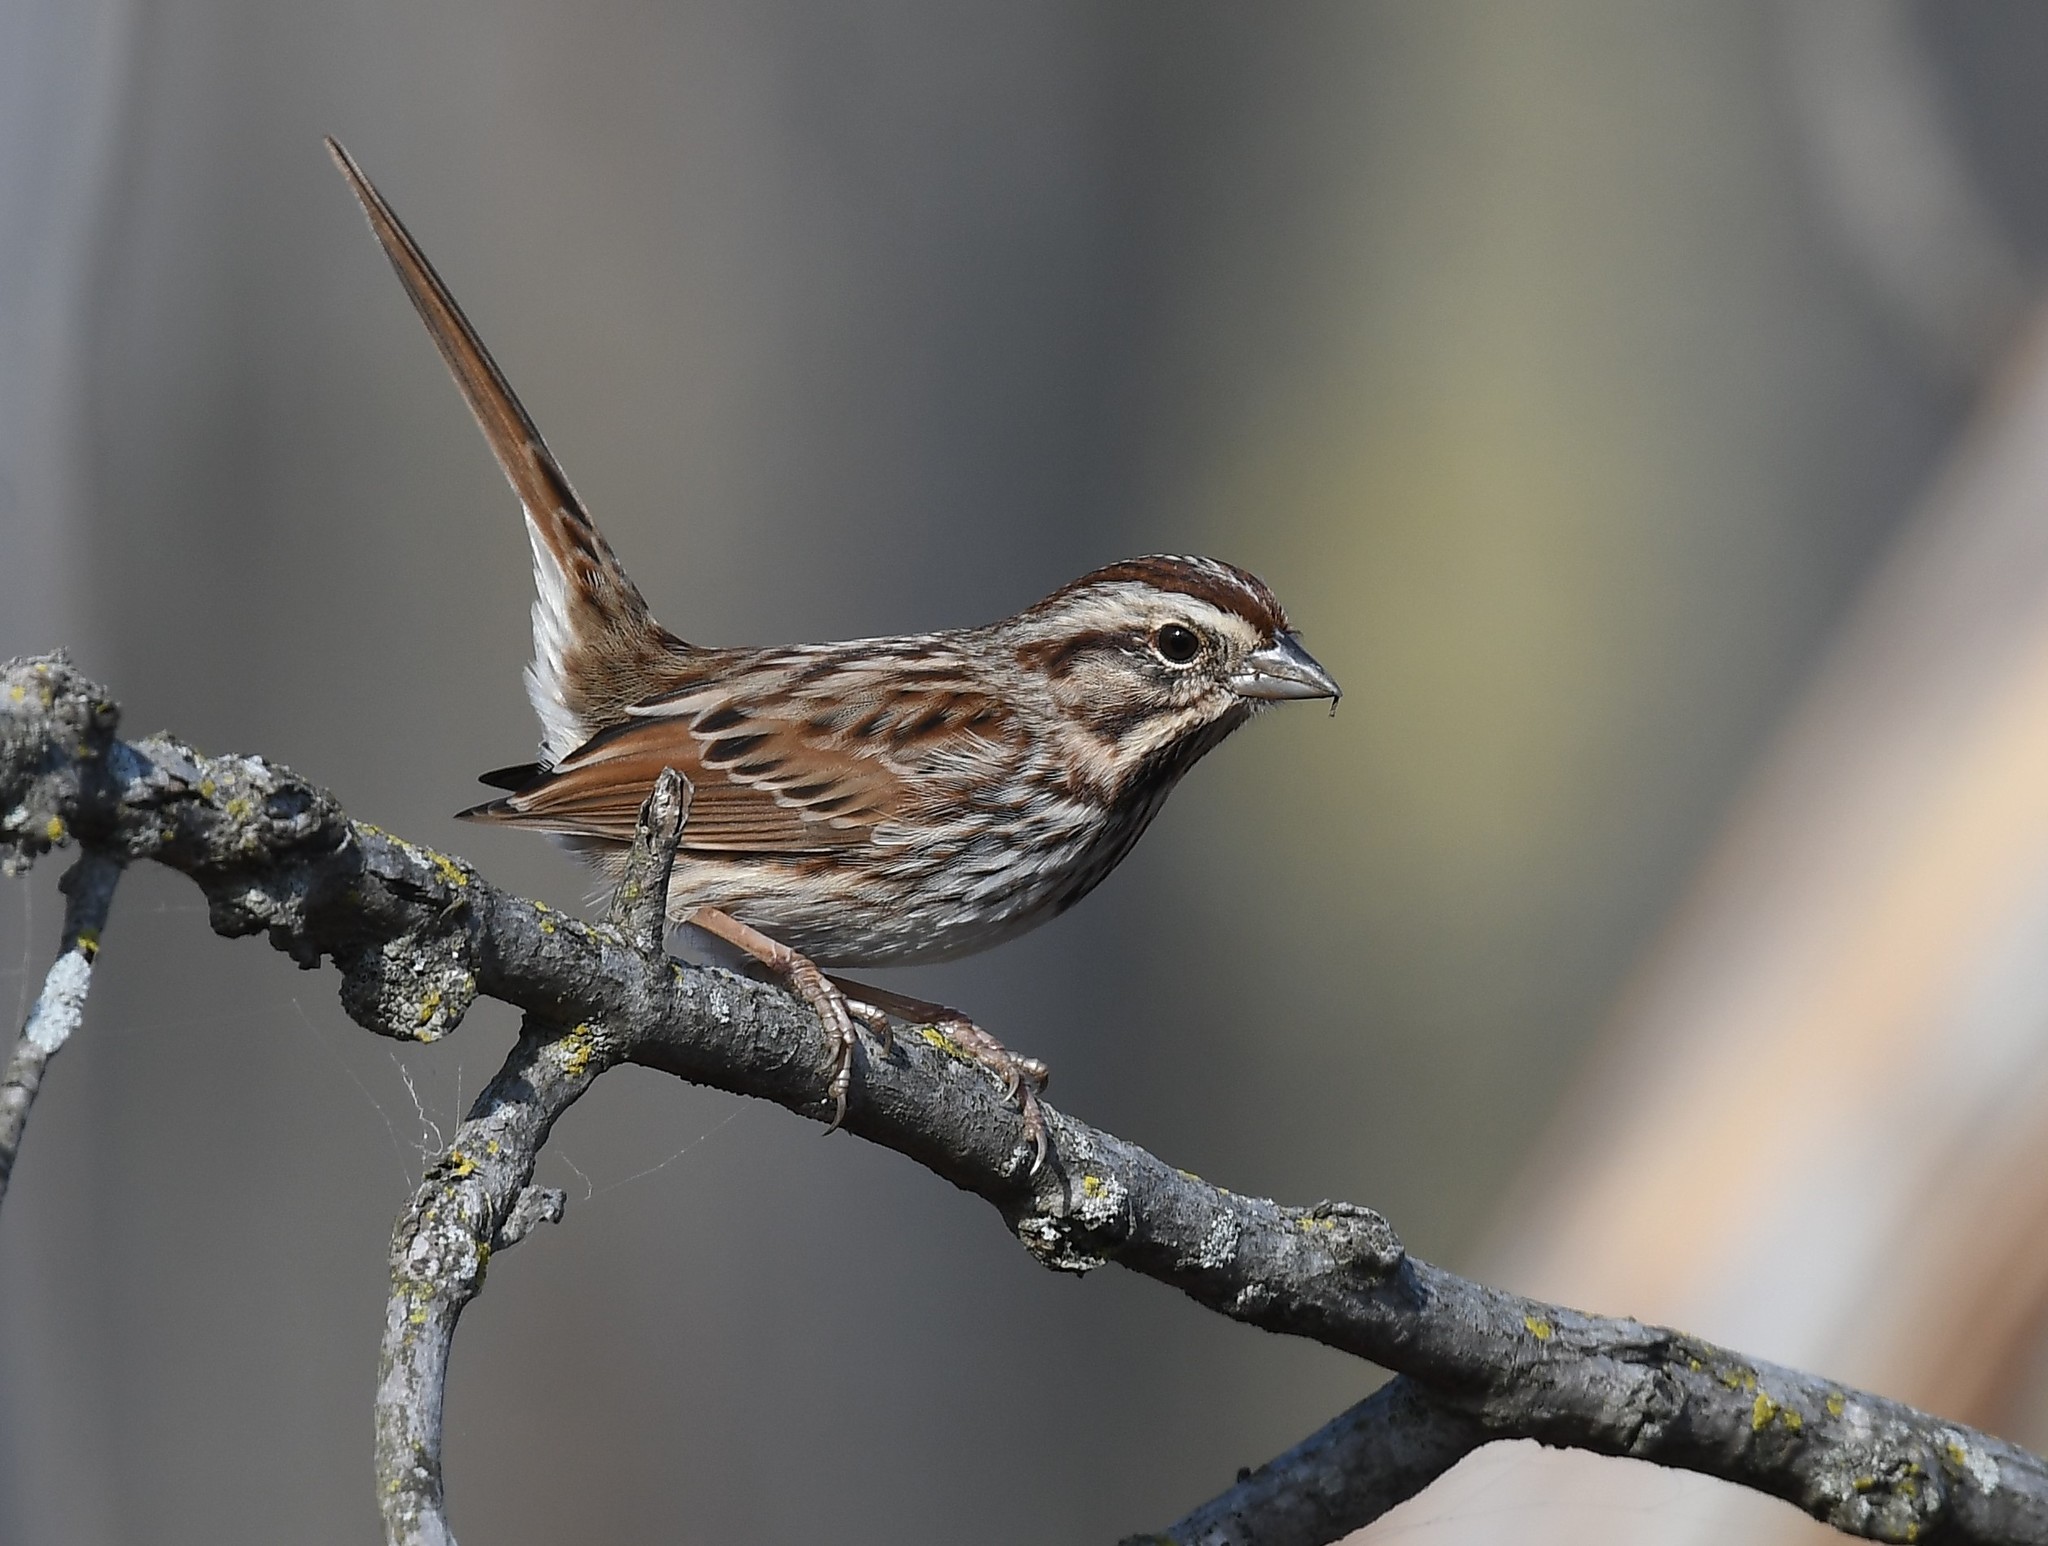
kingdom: Animalia
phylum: Chordata
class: Aves
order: Passeriformes
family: Passerellidae
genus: Melospiza
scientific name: Melospiza melodia
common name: Song sparrow
